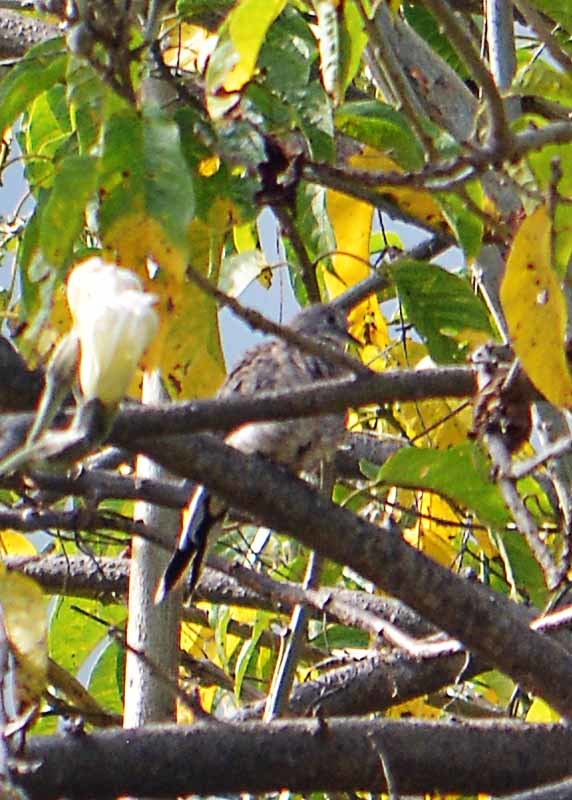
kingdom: Animalia
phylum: Chordata
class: Aves
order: Columbiformes
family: Columbidae
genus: Columbina
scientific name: Columbina inca
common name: Inca dove
